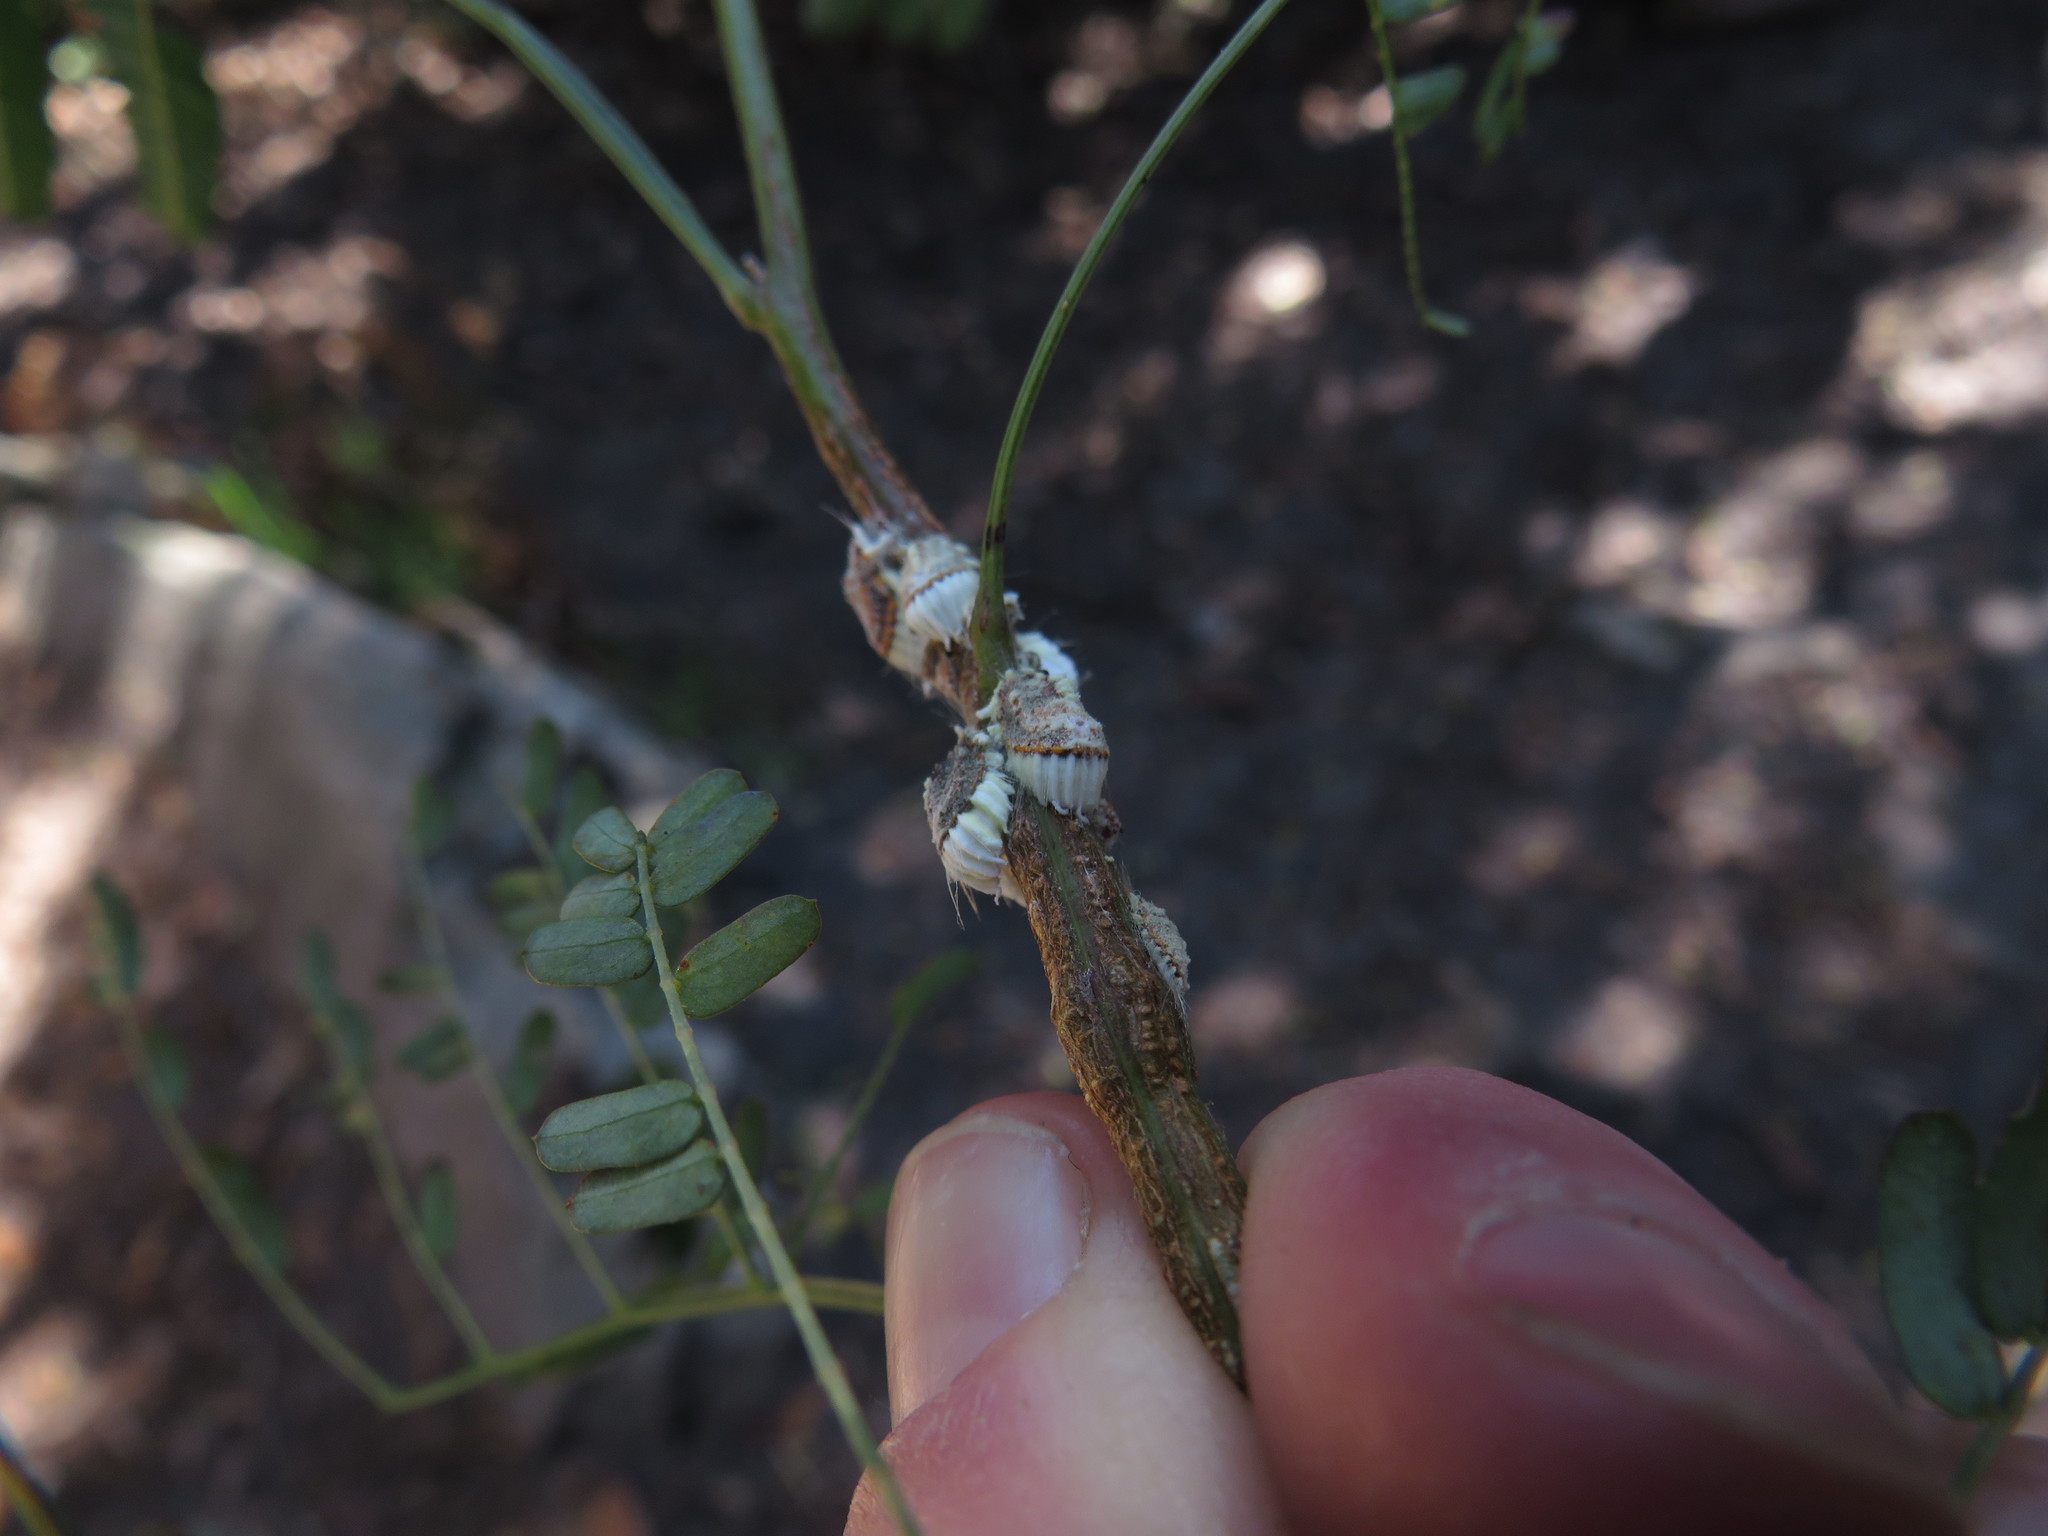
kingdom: Animalia
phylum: Arthropoda
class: Insecta
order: Hemiptera
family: Margarodidae
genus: Icerya
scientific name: Icerya purchasi
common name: Cottony cushion scale
